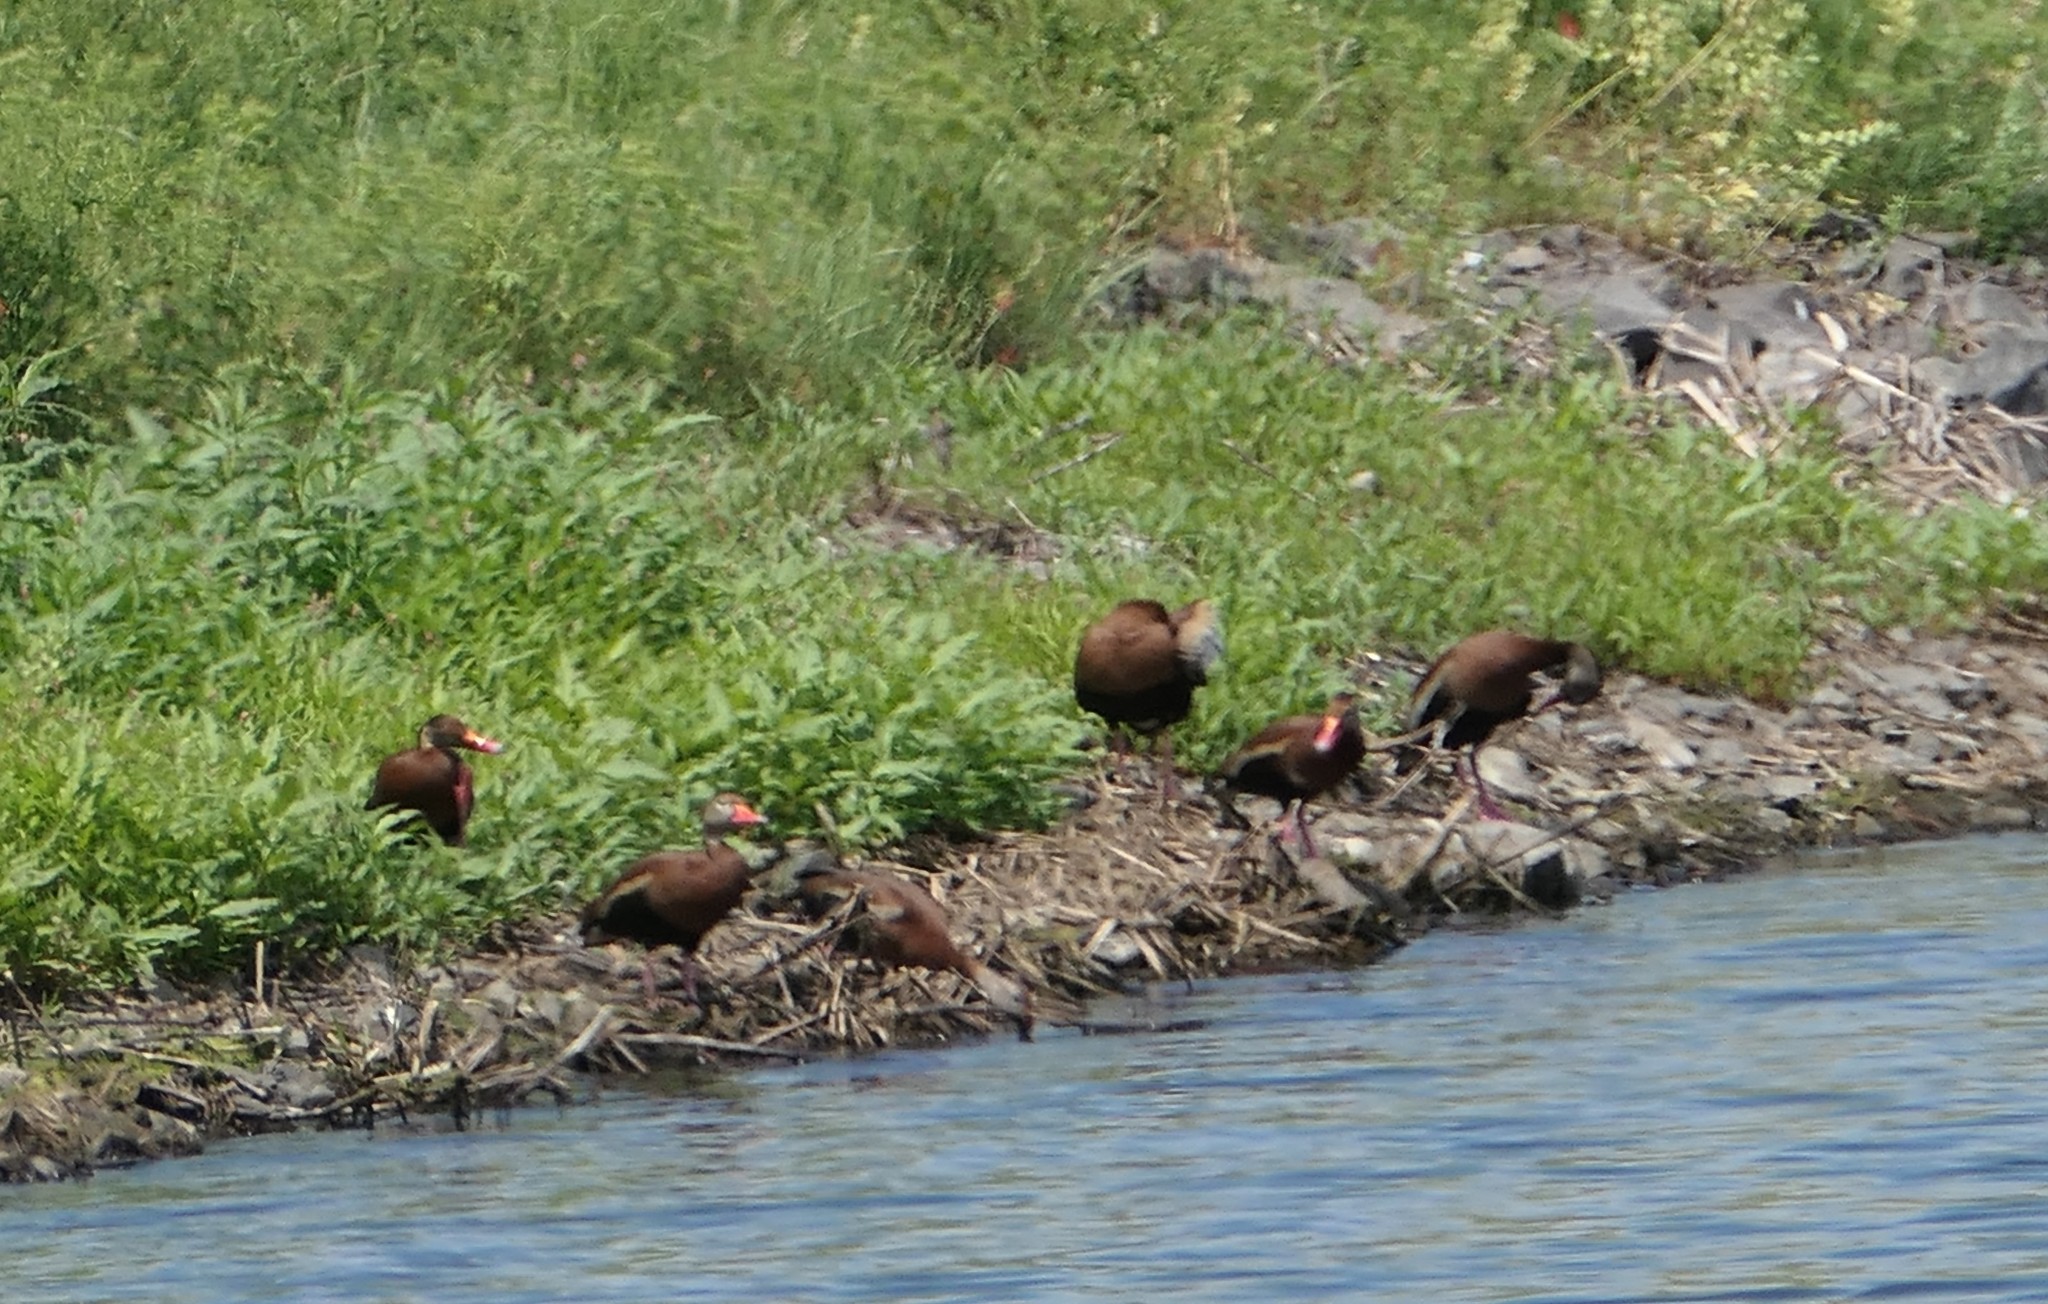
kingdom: Animalia
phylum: Chordata
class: Aves
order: Anseriformes
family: Anatidae
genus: Dendrocygna
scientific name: Dendrocygna autumnalis
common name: Black-bellied whistling duck
